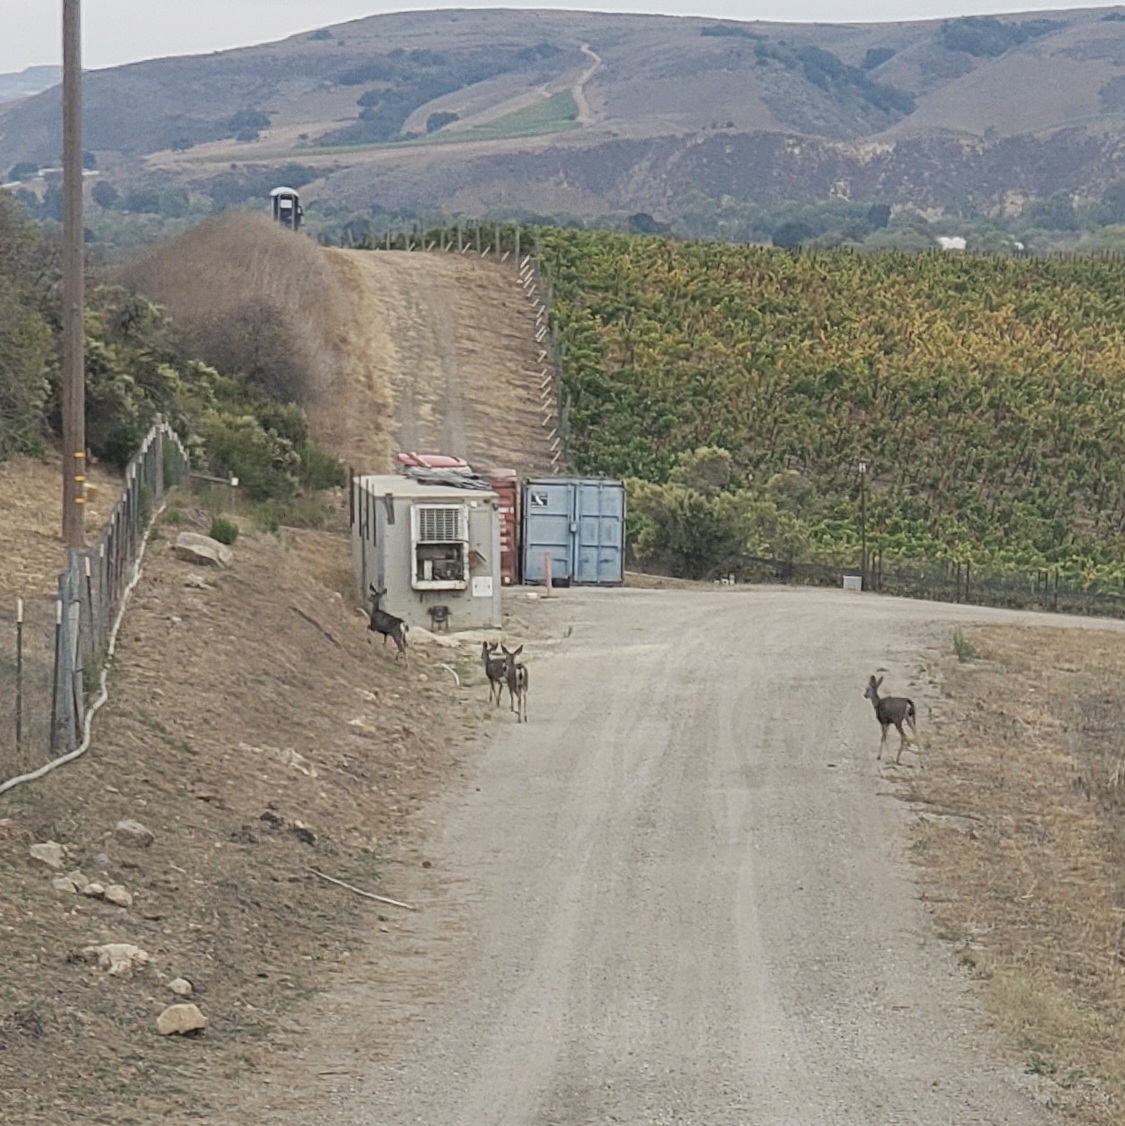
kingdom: Animalia
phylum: Chordata
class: Mammalia
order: Artiodactyla
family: Cervidae
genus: Odocoileus
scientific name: Odocoileus hemionus
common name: Mule deer
